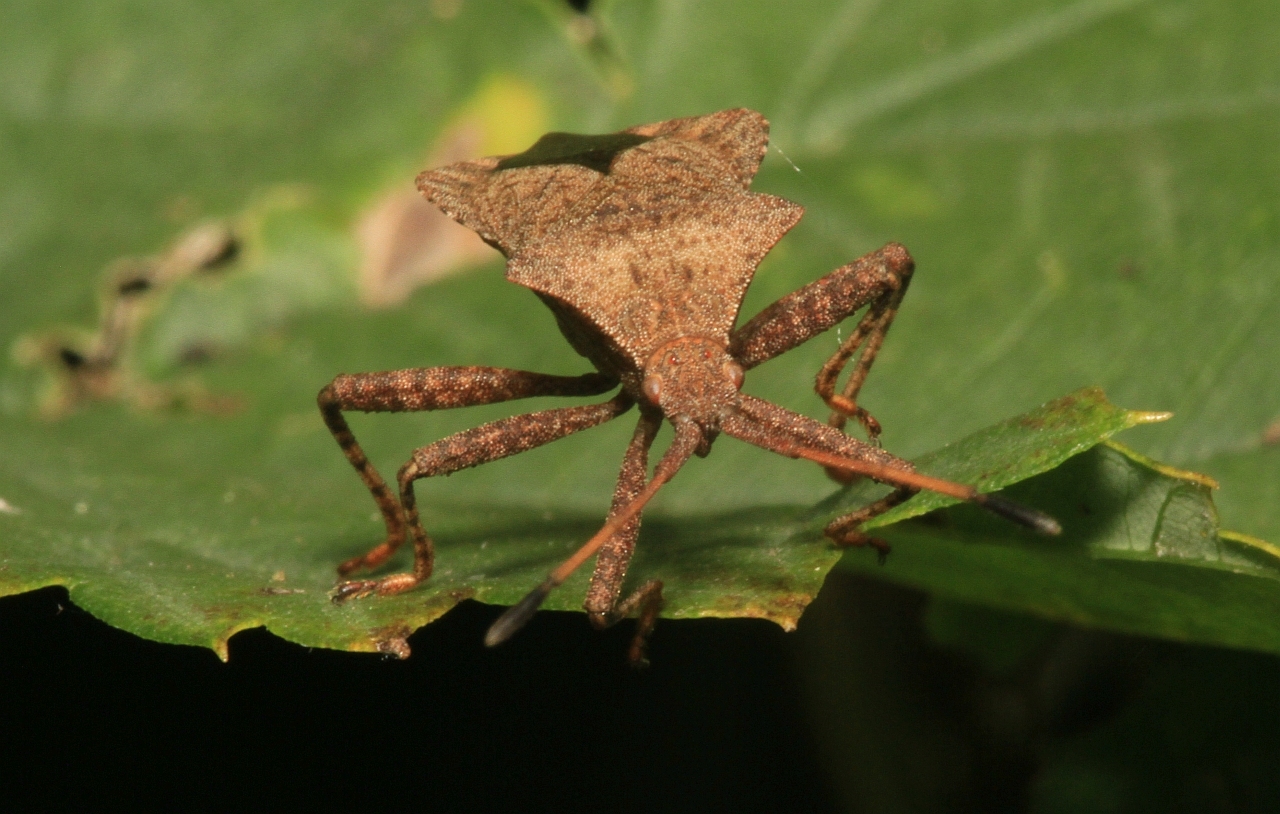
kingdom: Animalia
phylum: Arthropoda
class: Insecta
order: Hemiptera
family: Coreidae
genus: Coreus
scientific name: Coreus marginatus
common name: Dock bug
